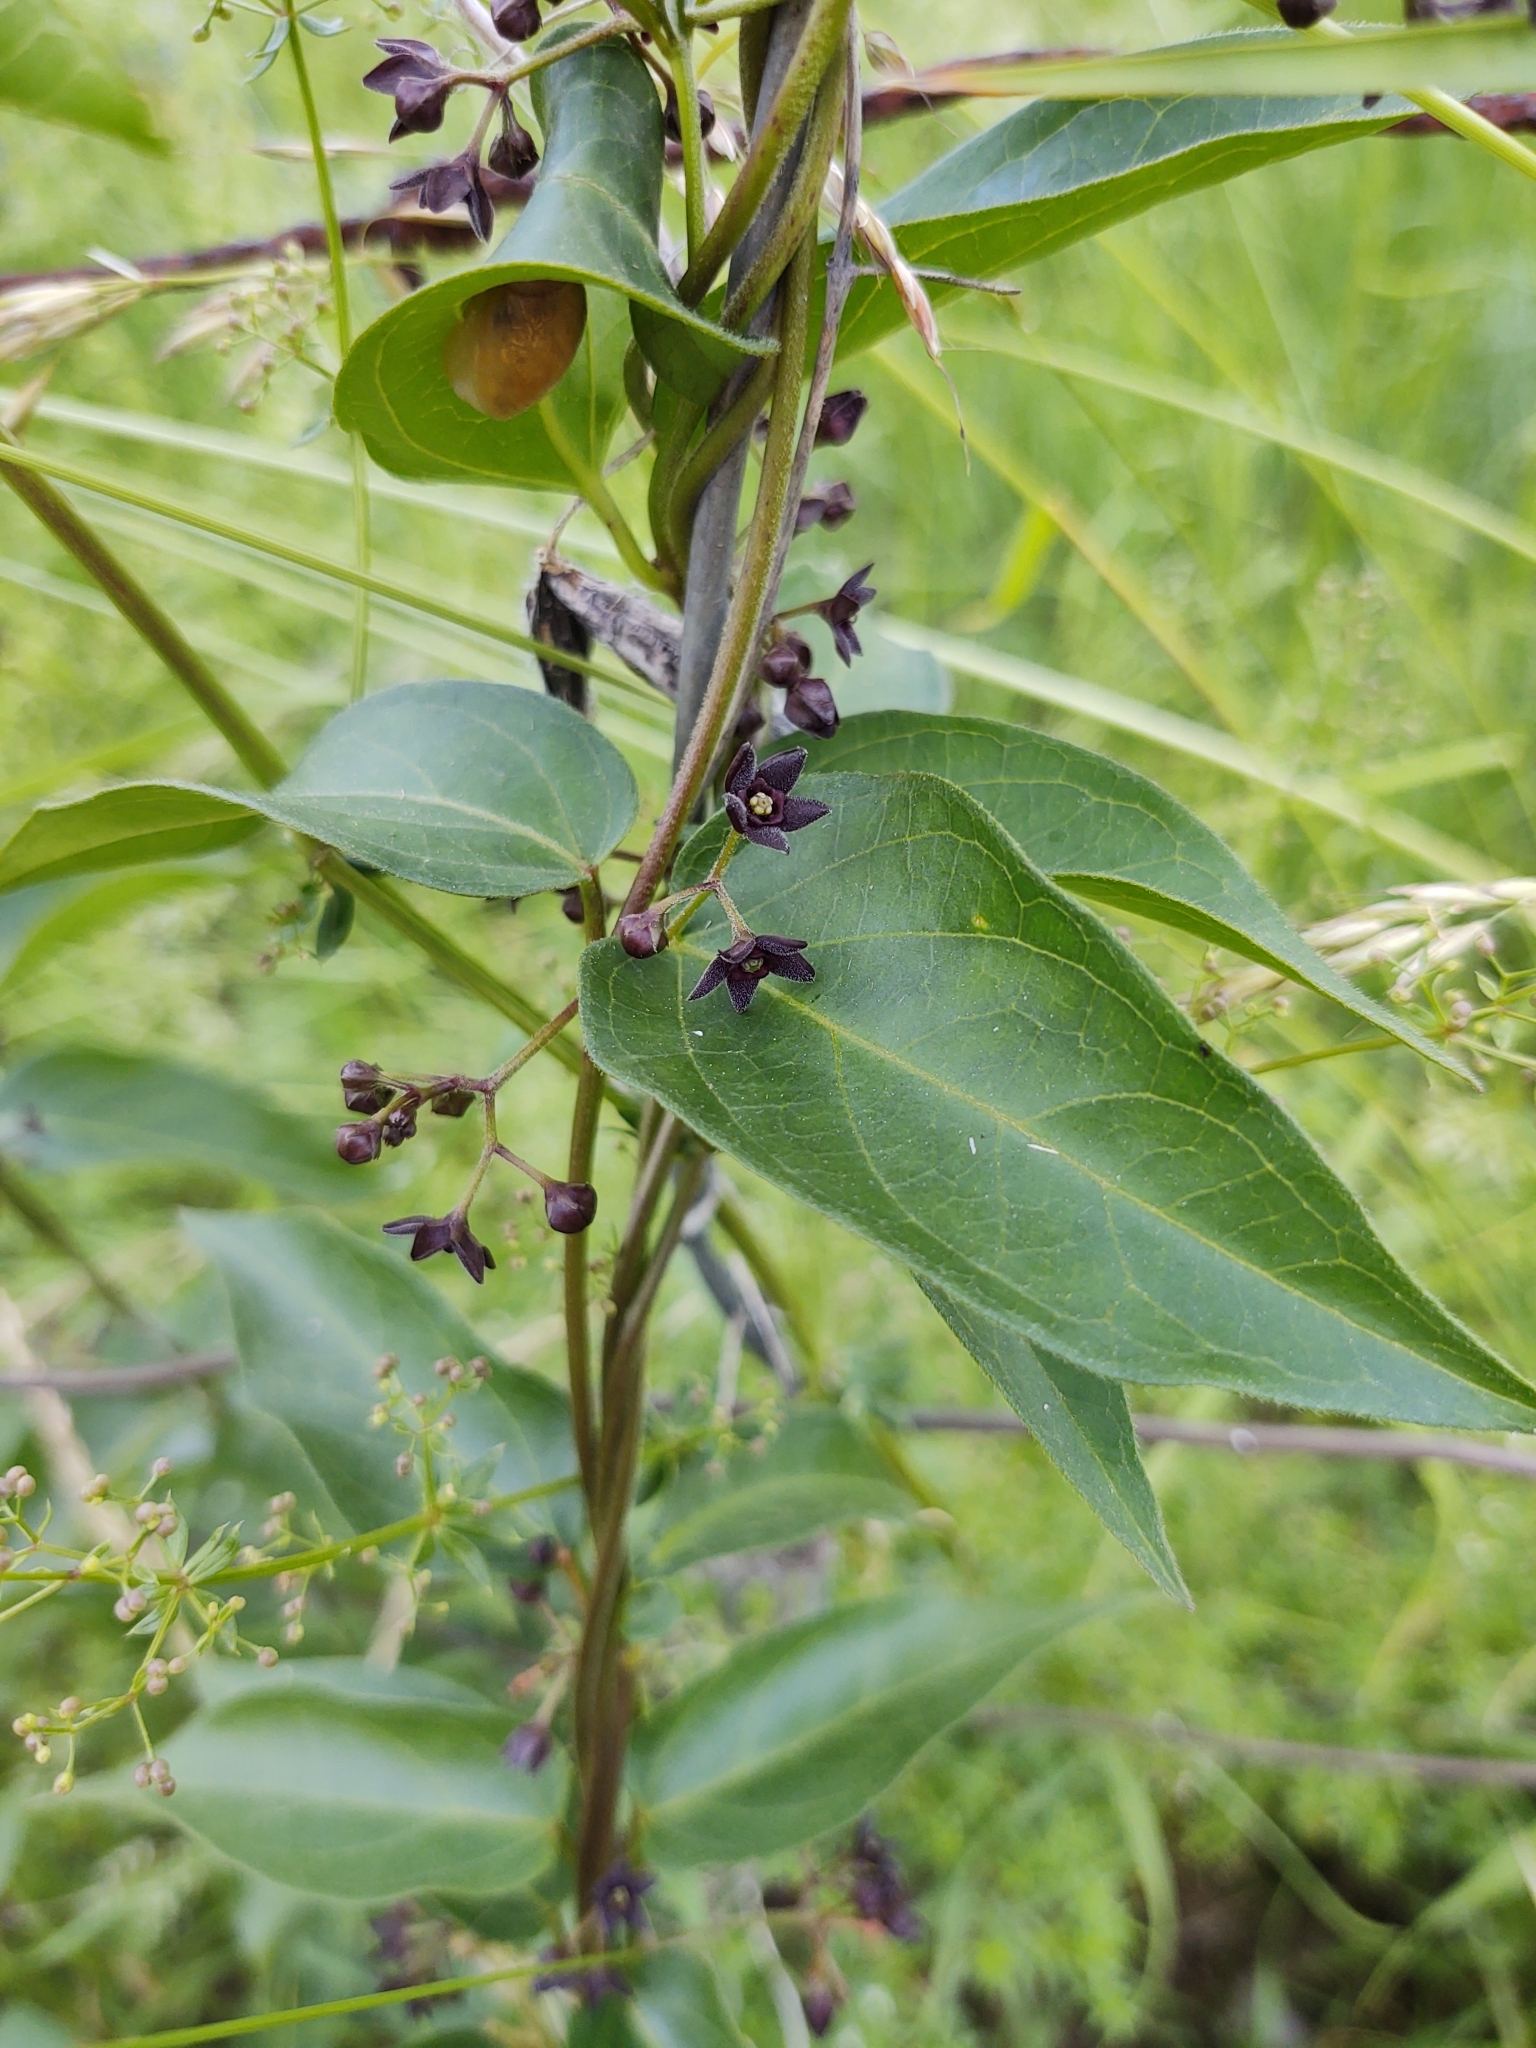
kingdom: Plantae
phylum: Tracheophyta
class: Magnoliopsida
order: Gentianales
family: Apocynaceae
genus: Vincetoxicum
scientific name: Vincetoxicum nigrum
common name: Black swallow-wort
